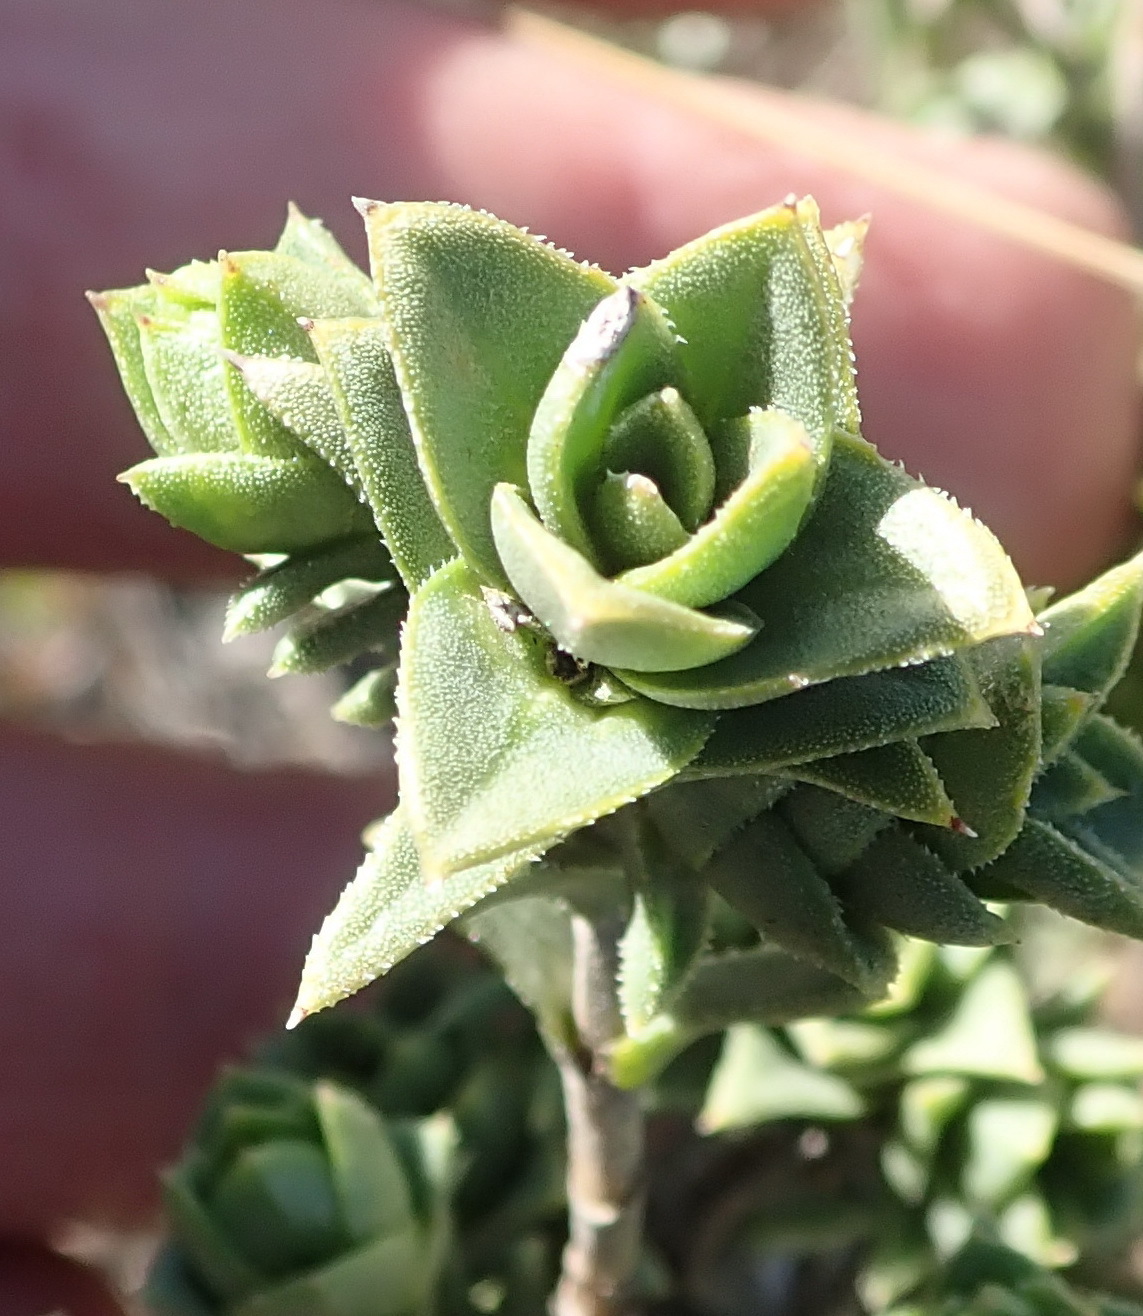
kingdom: Plantae
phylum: Tracheophyta
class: Magnoliopsida
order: Asterales
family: Asteraceae
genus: Pteronia
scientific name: Pteronia elongata
